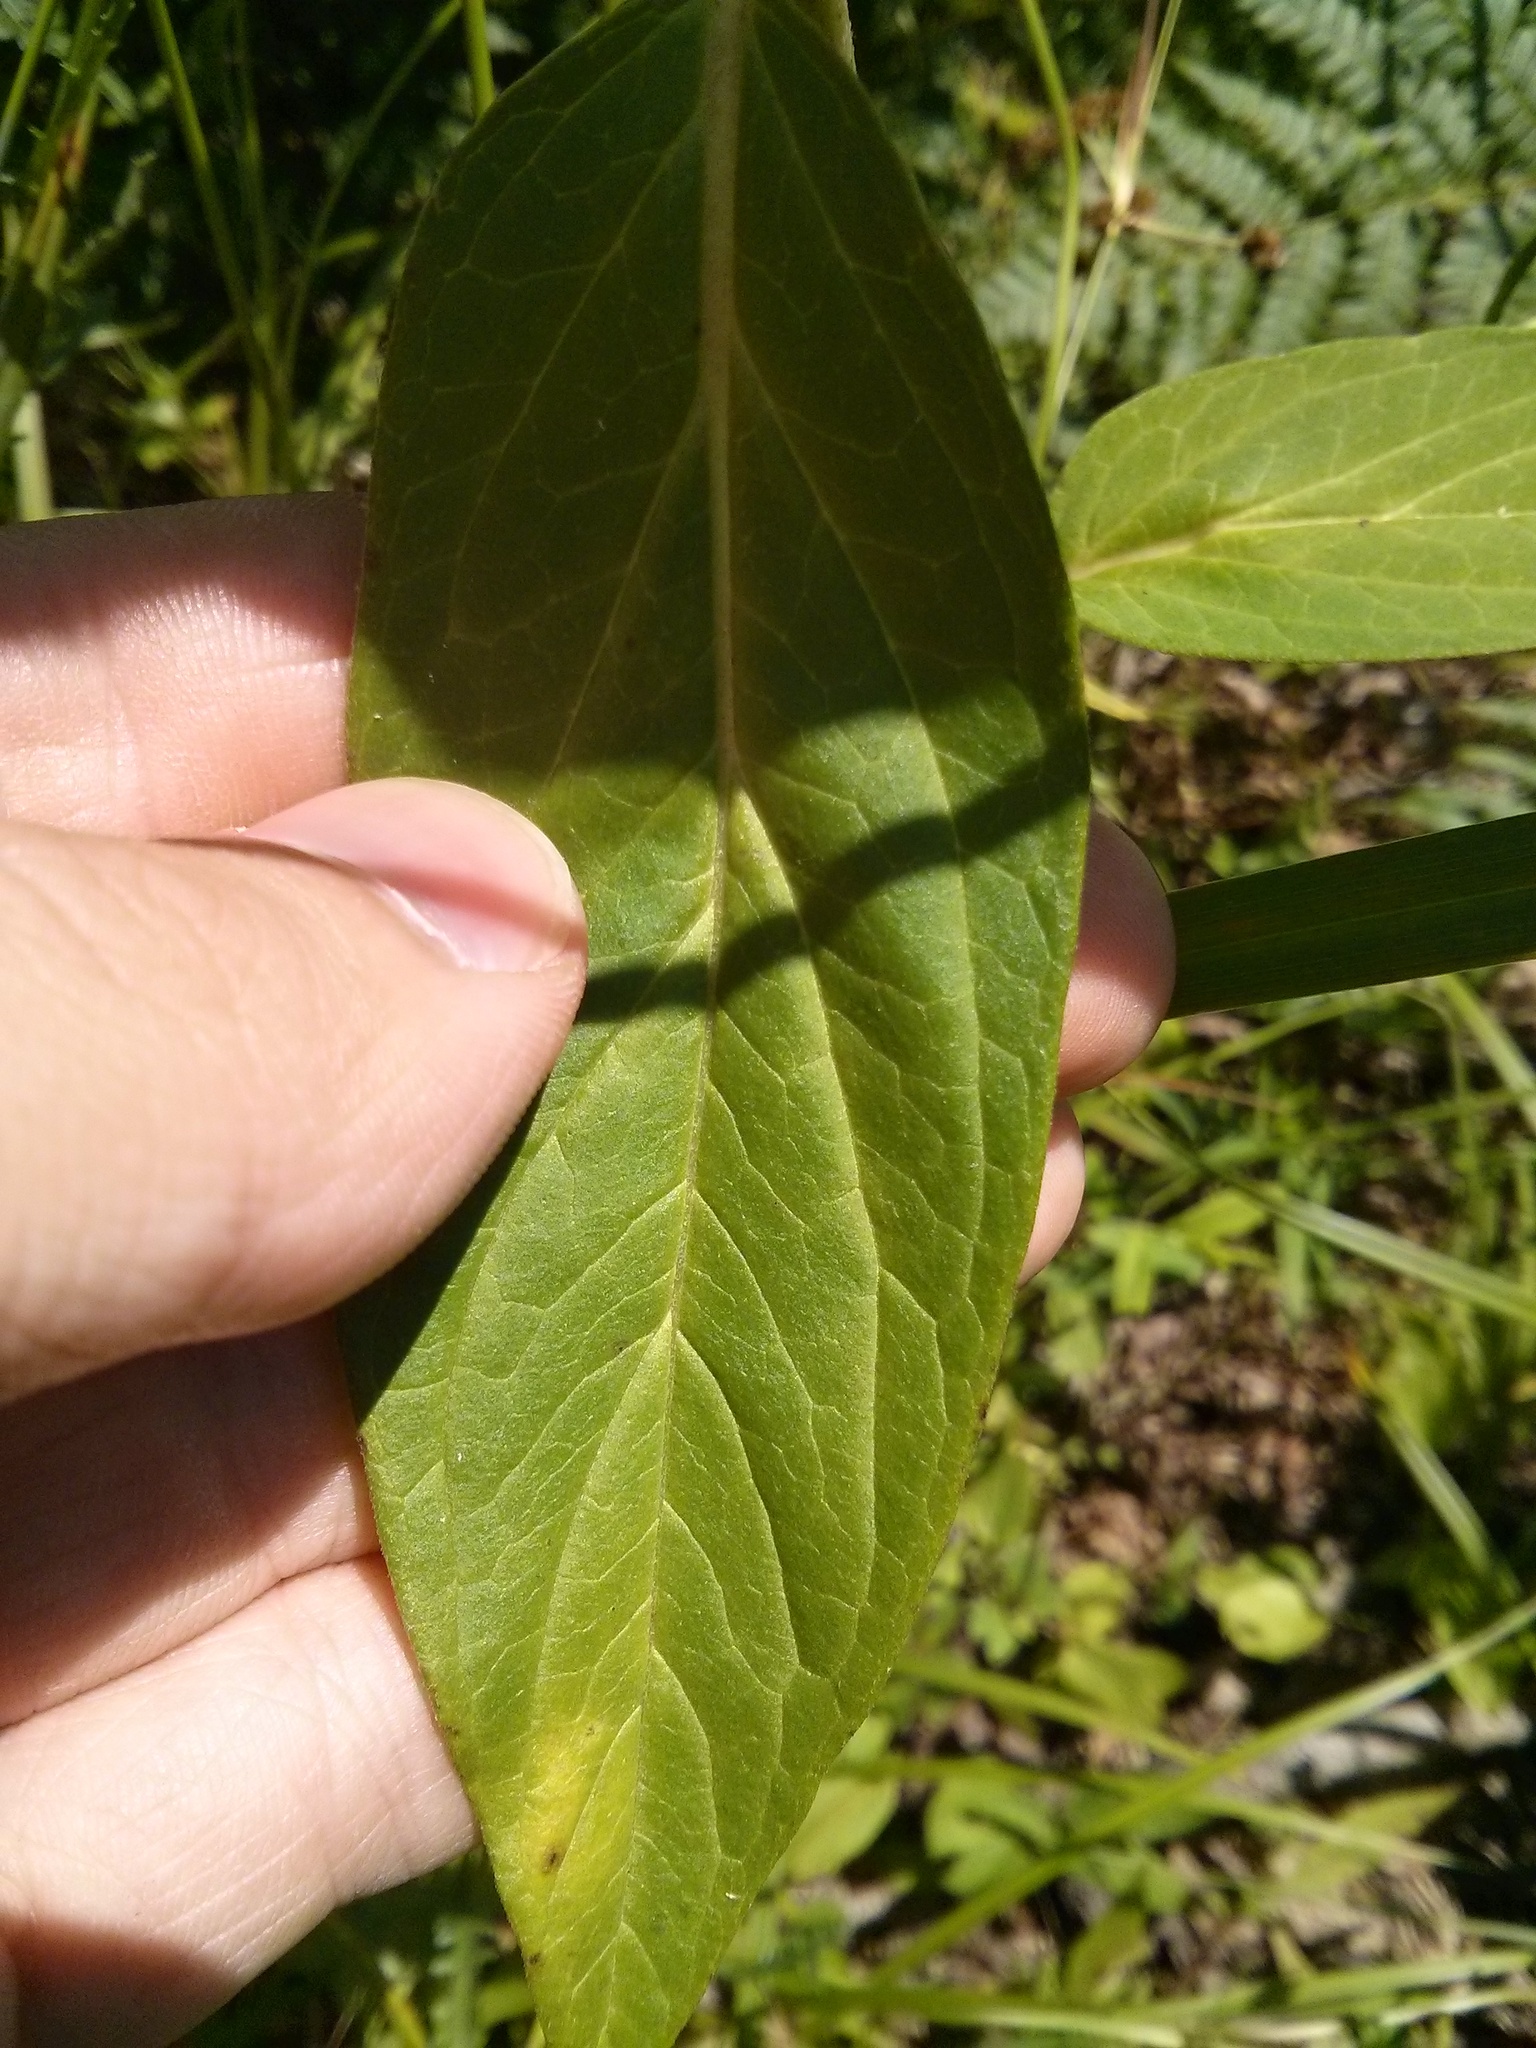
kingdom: Plantae
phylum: Tracheophyta
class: Magnoliopsida
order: Gentianales
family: Apocynaceae
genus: Asclepias
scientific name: Asclepias incarnata
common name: Swamp milkweed
